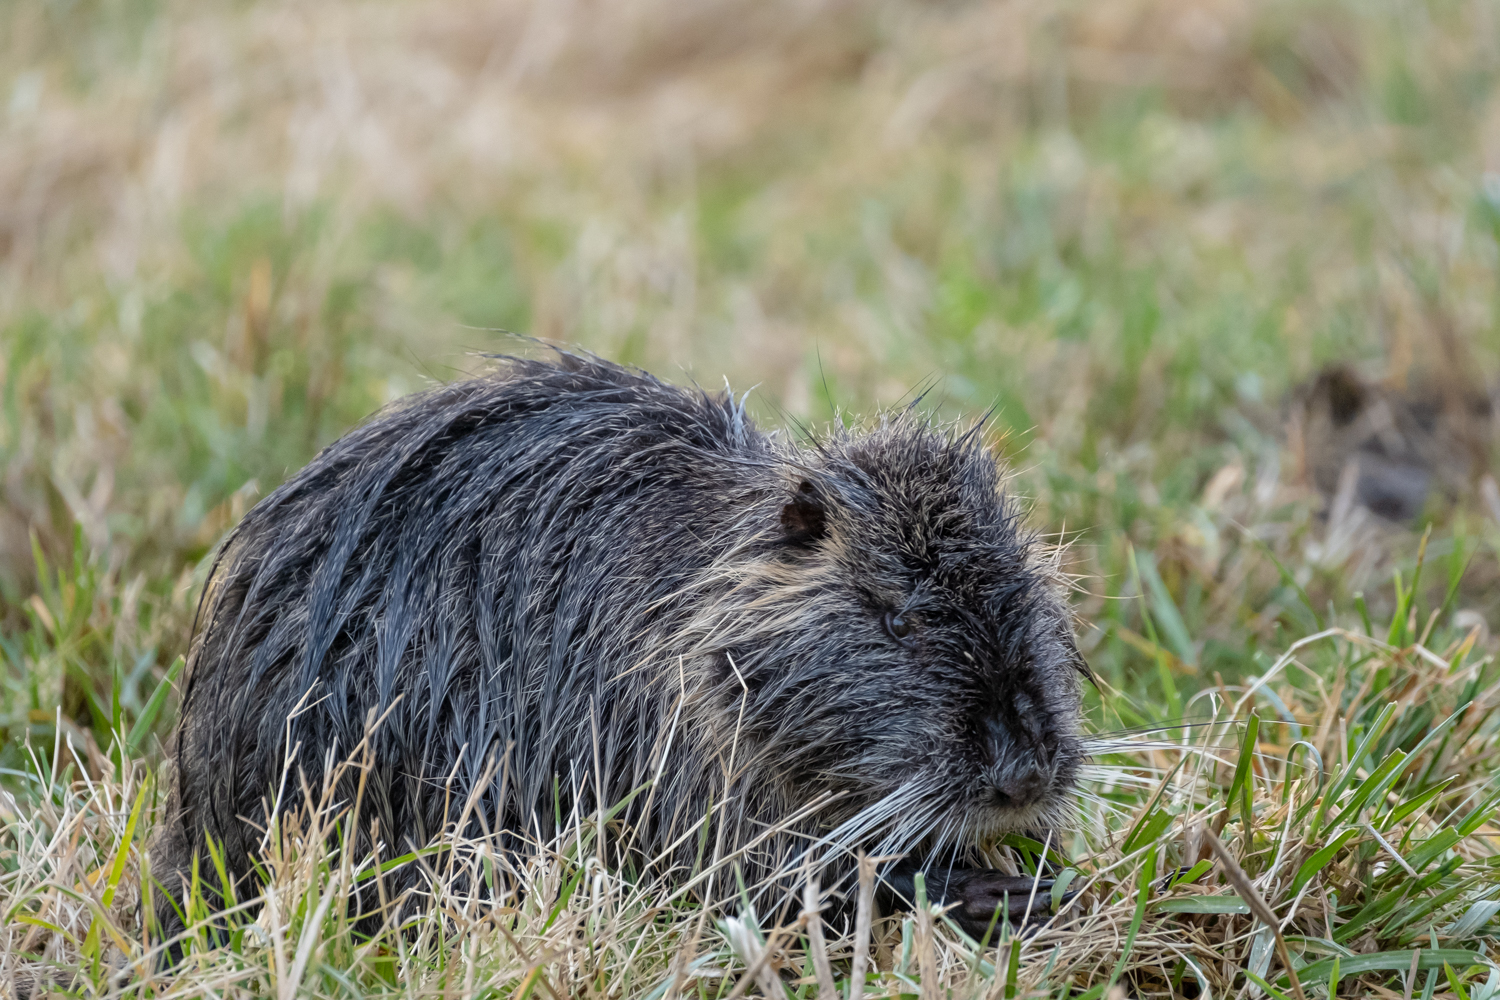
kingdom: Animalia
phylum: Chordata
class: Mammalia
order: Rodentia
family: Myocastoridae
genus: Myocastor
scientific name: Myocastor coypus
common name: Coypu
